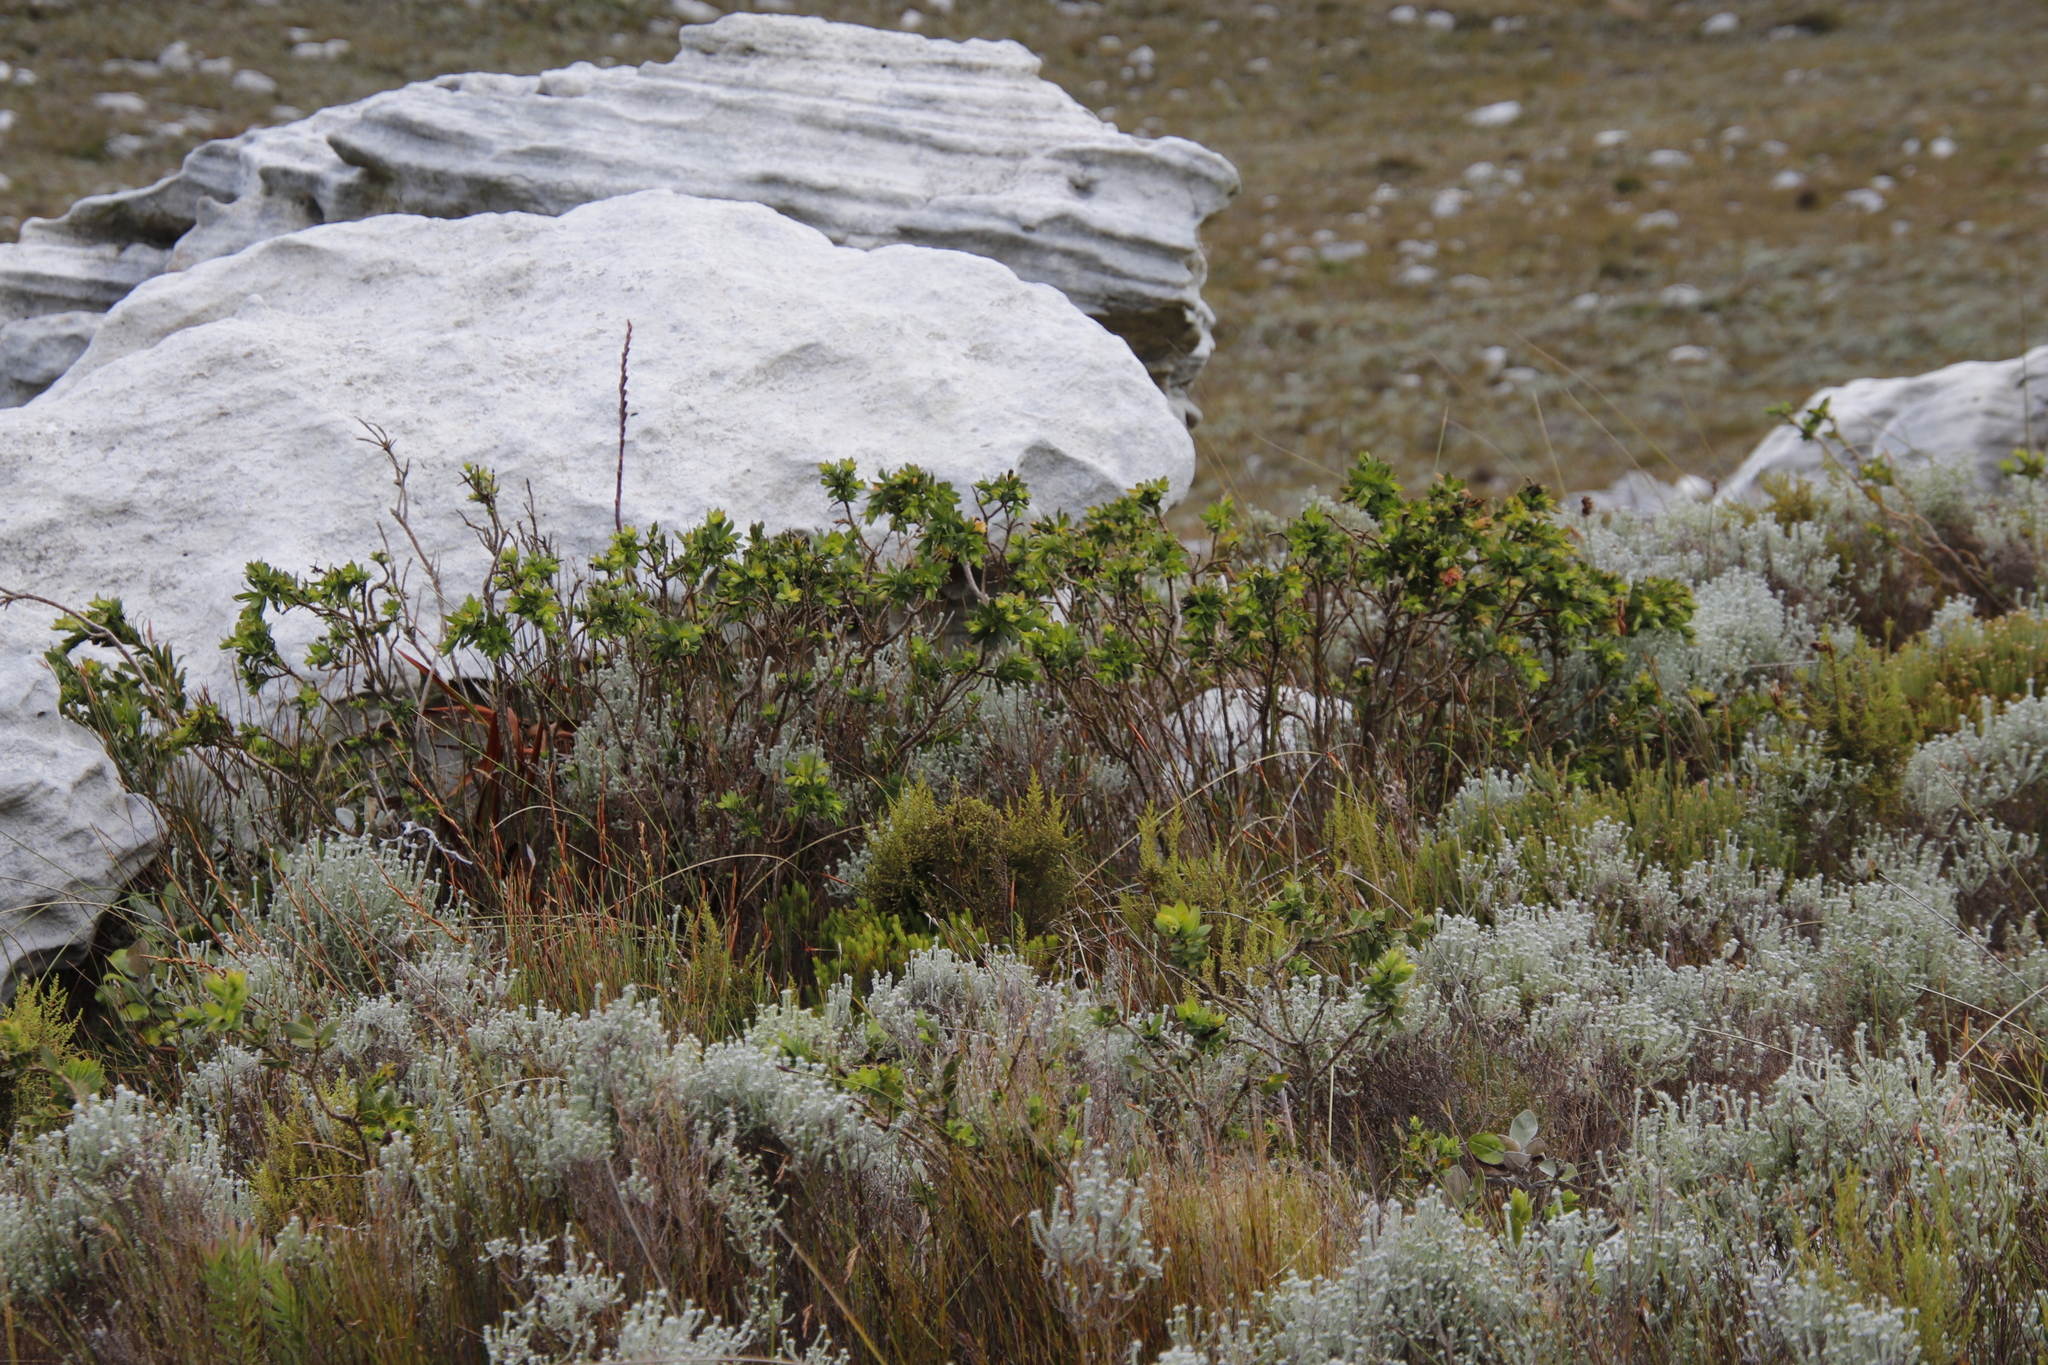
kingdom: Plantae
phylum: Tracheophyta
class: Magnoliopsida
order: Fabales
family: Fabaceae
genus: Liparia
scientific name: Liparia splendens
